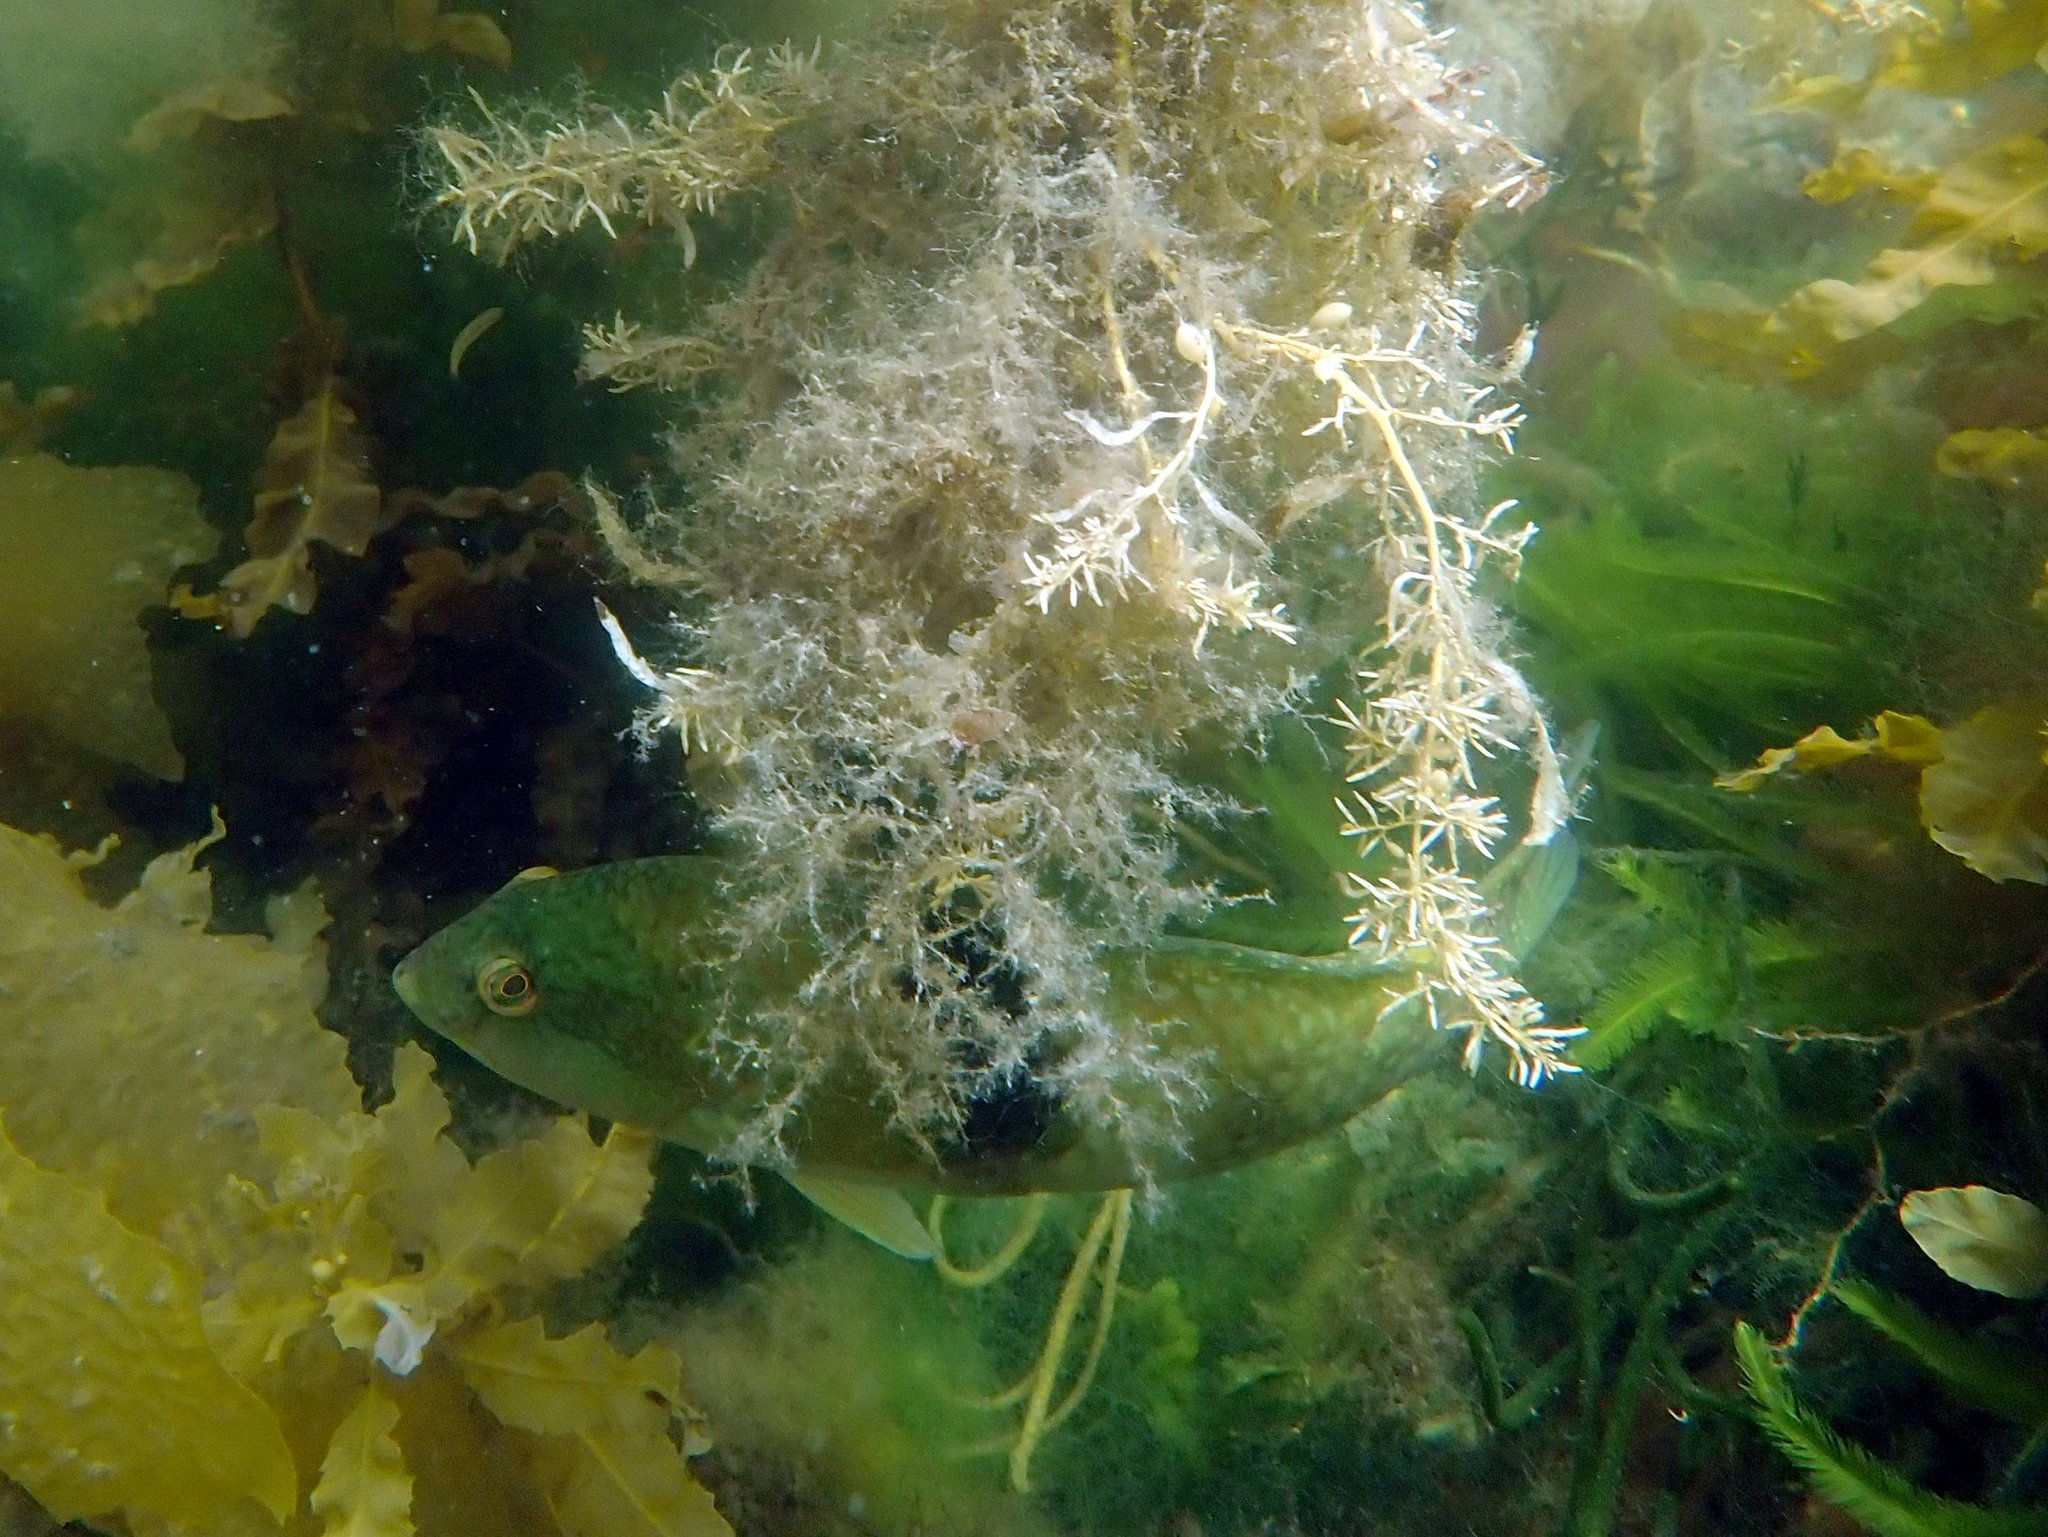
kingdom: Animalia
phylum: Chordata
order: Perciformes
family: Labridae
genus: Notolabrus
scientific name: Notolabrus tetricus
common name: Blue-throated parrotfish
